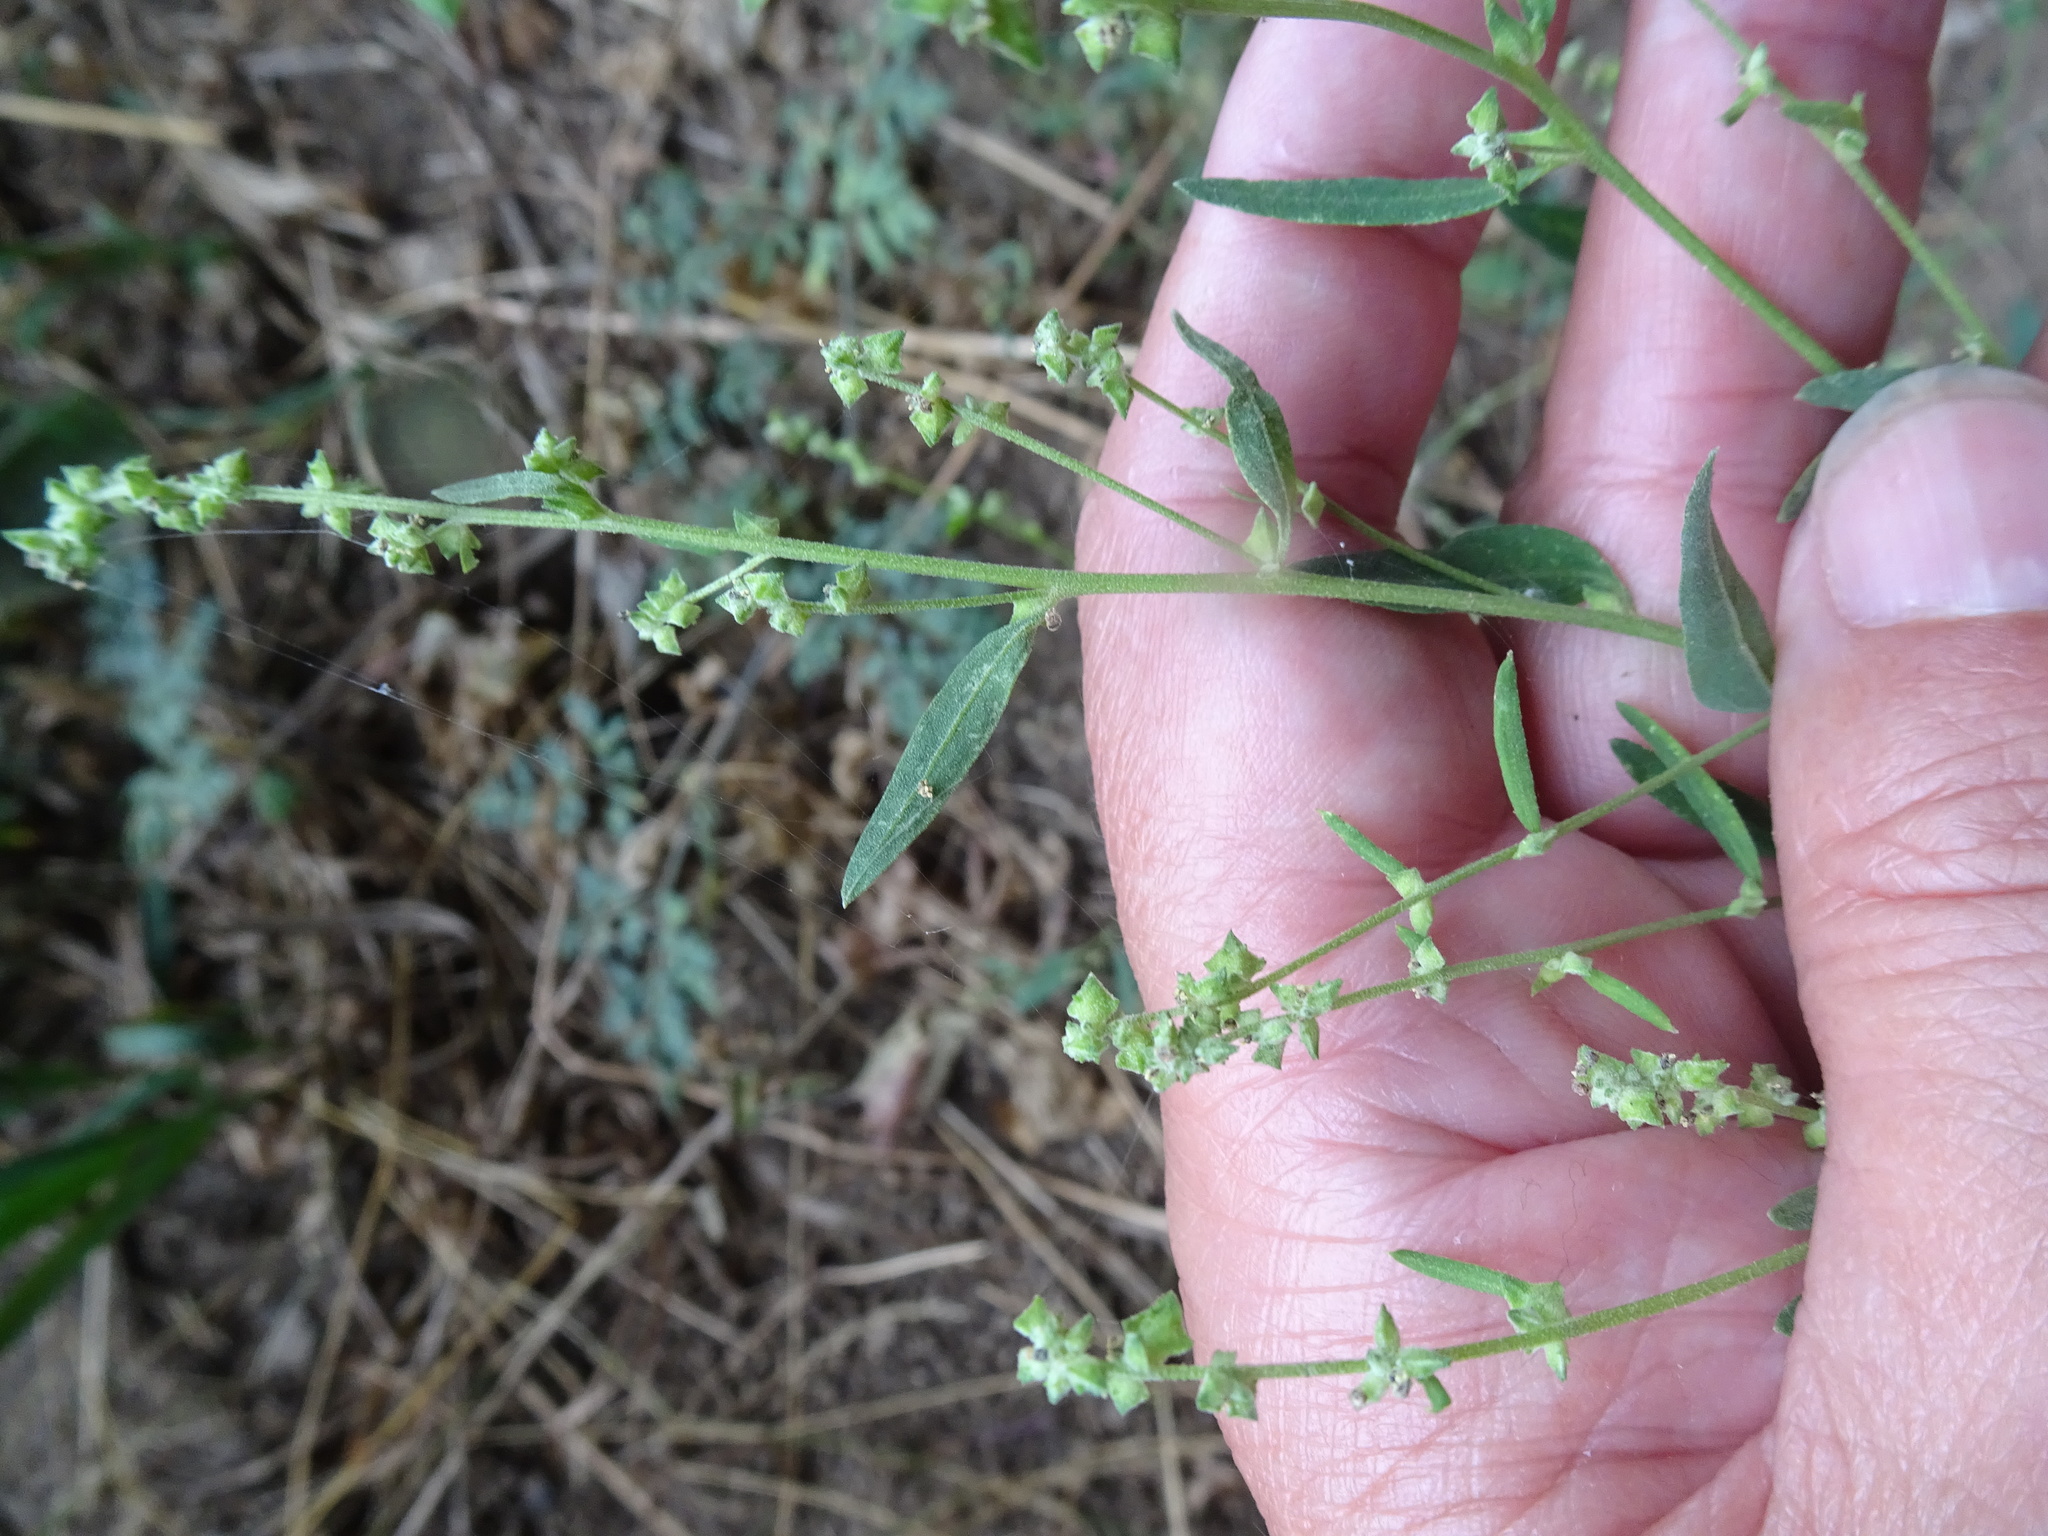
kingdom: Plantae
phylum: Tracheophyta
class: Magnoliopsida
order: Caryophyllales
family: Amaranthaceae
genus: Atriplex
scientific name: Atriplex patula
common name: Common orache
